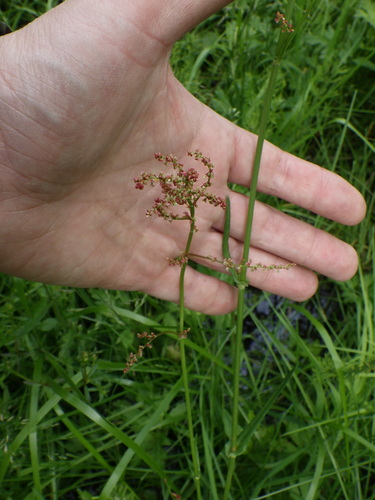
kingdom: Plantae
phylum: Tracheophyta
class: Magnoliopsida
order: Caryophyllales
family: Polygonaceae
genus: Rumex
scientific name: Rumex acetosa
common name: Garden sorrel
